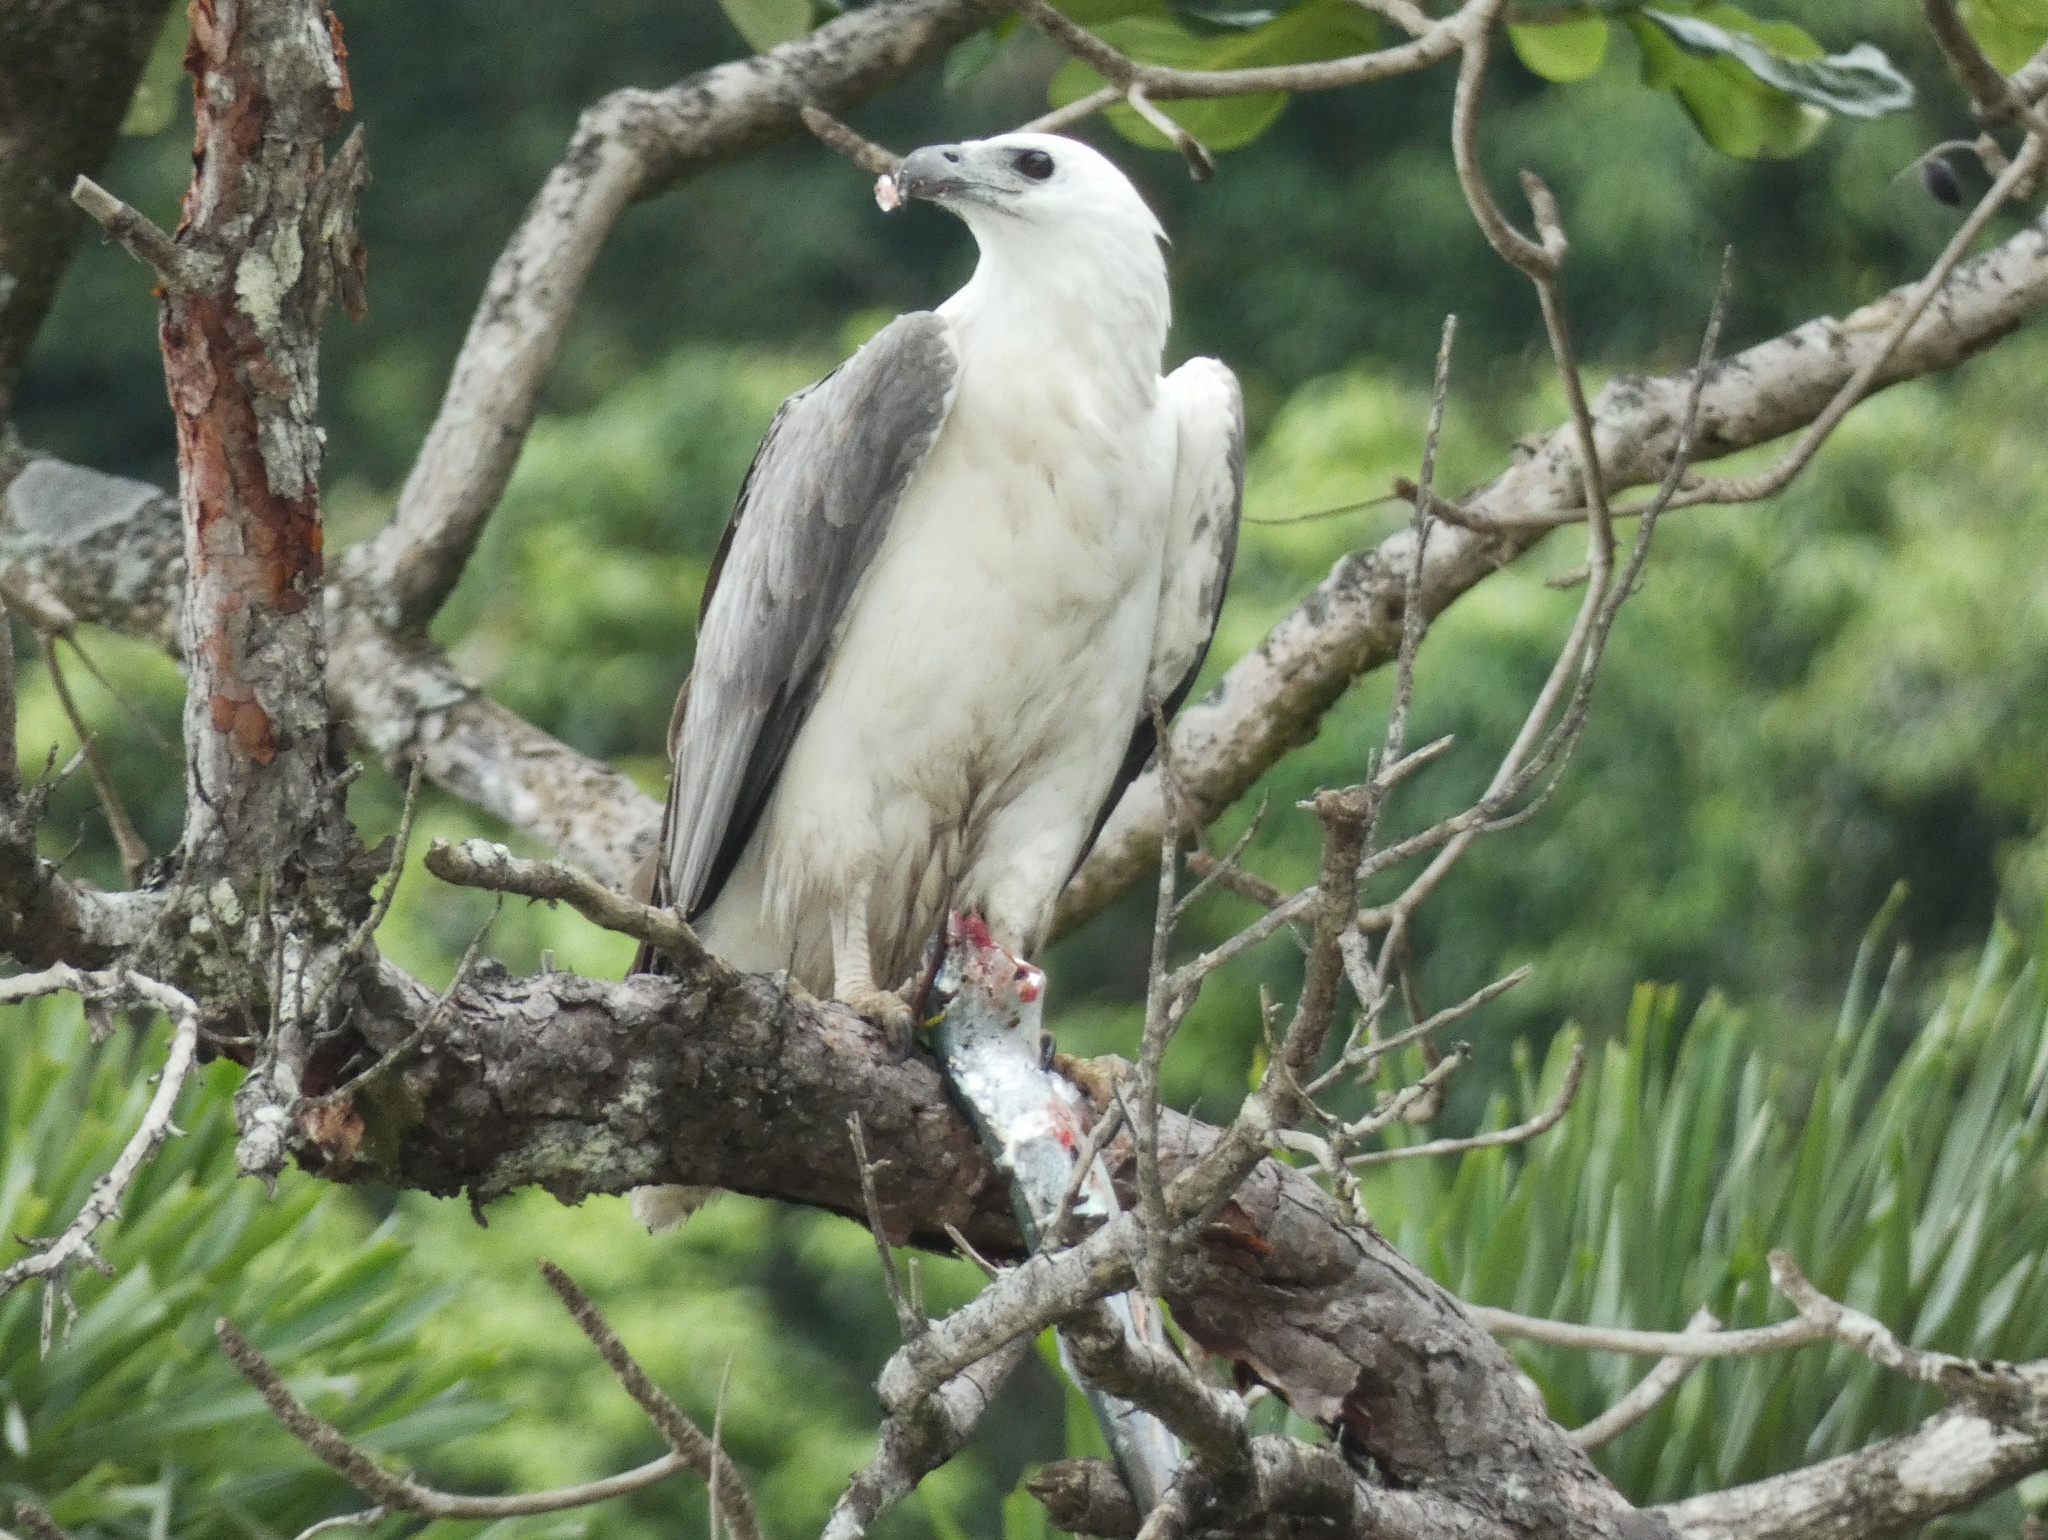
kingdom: Animalia
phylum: Chordata
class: Aves
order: Accipitriformes
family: Accipitridae
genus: Haliaeetus
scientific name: Haliaeetus leucogaster
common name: White-bellied sea eagle
